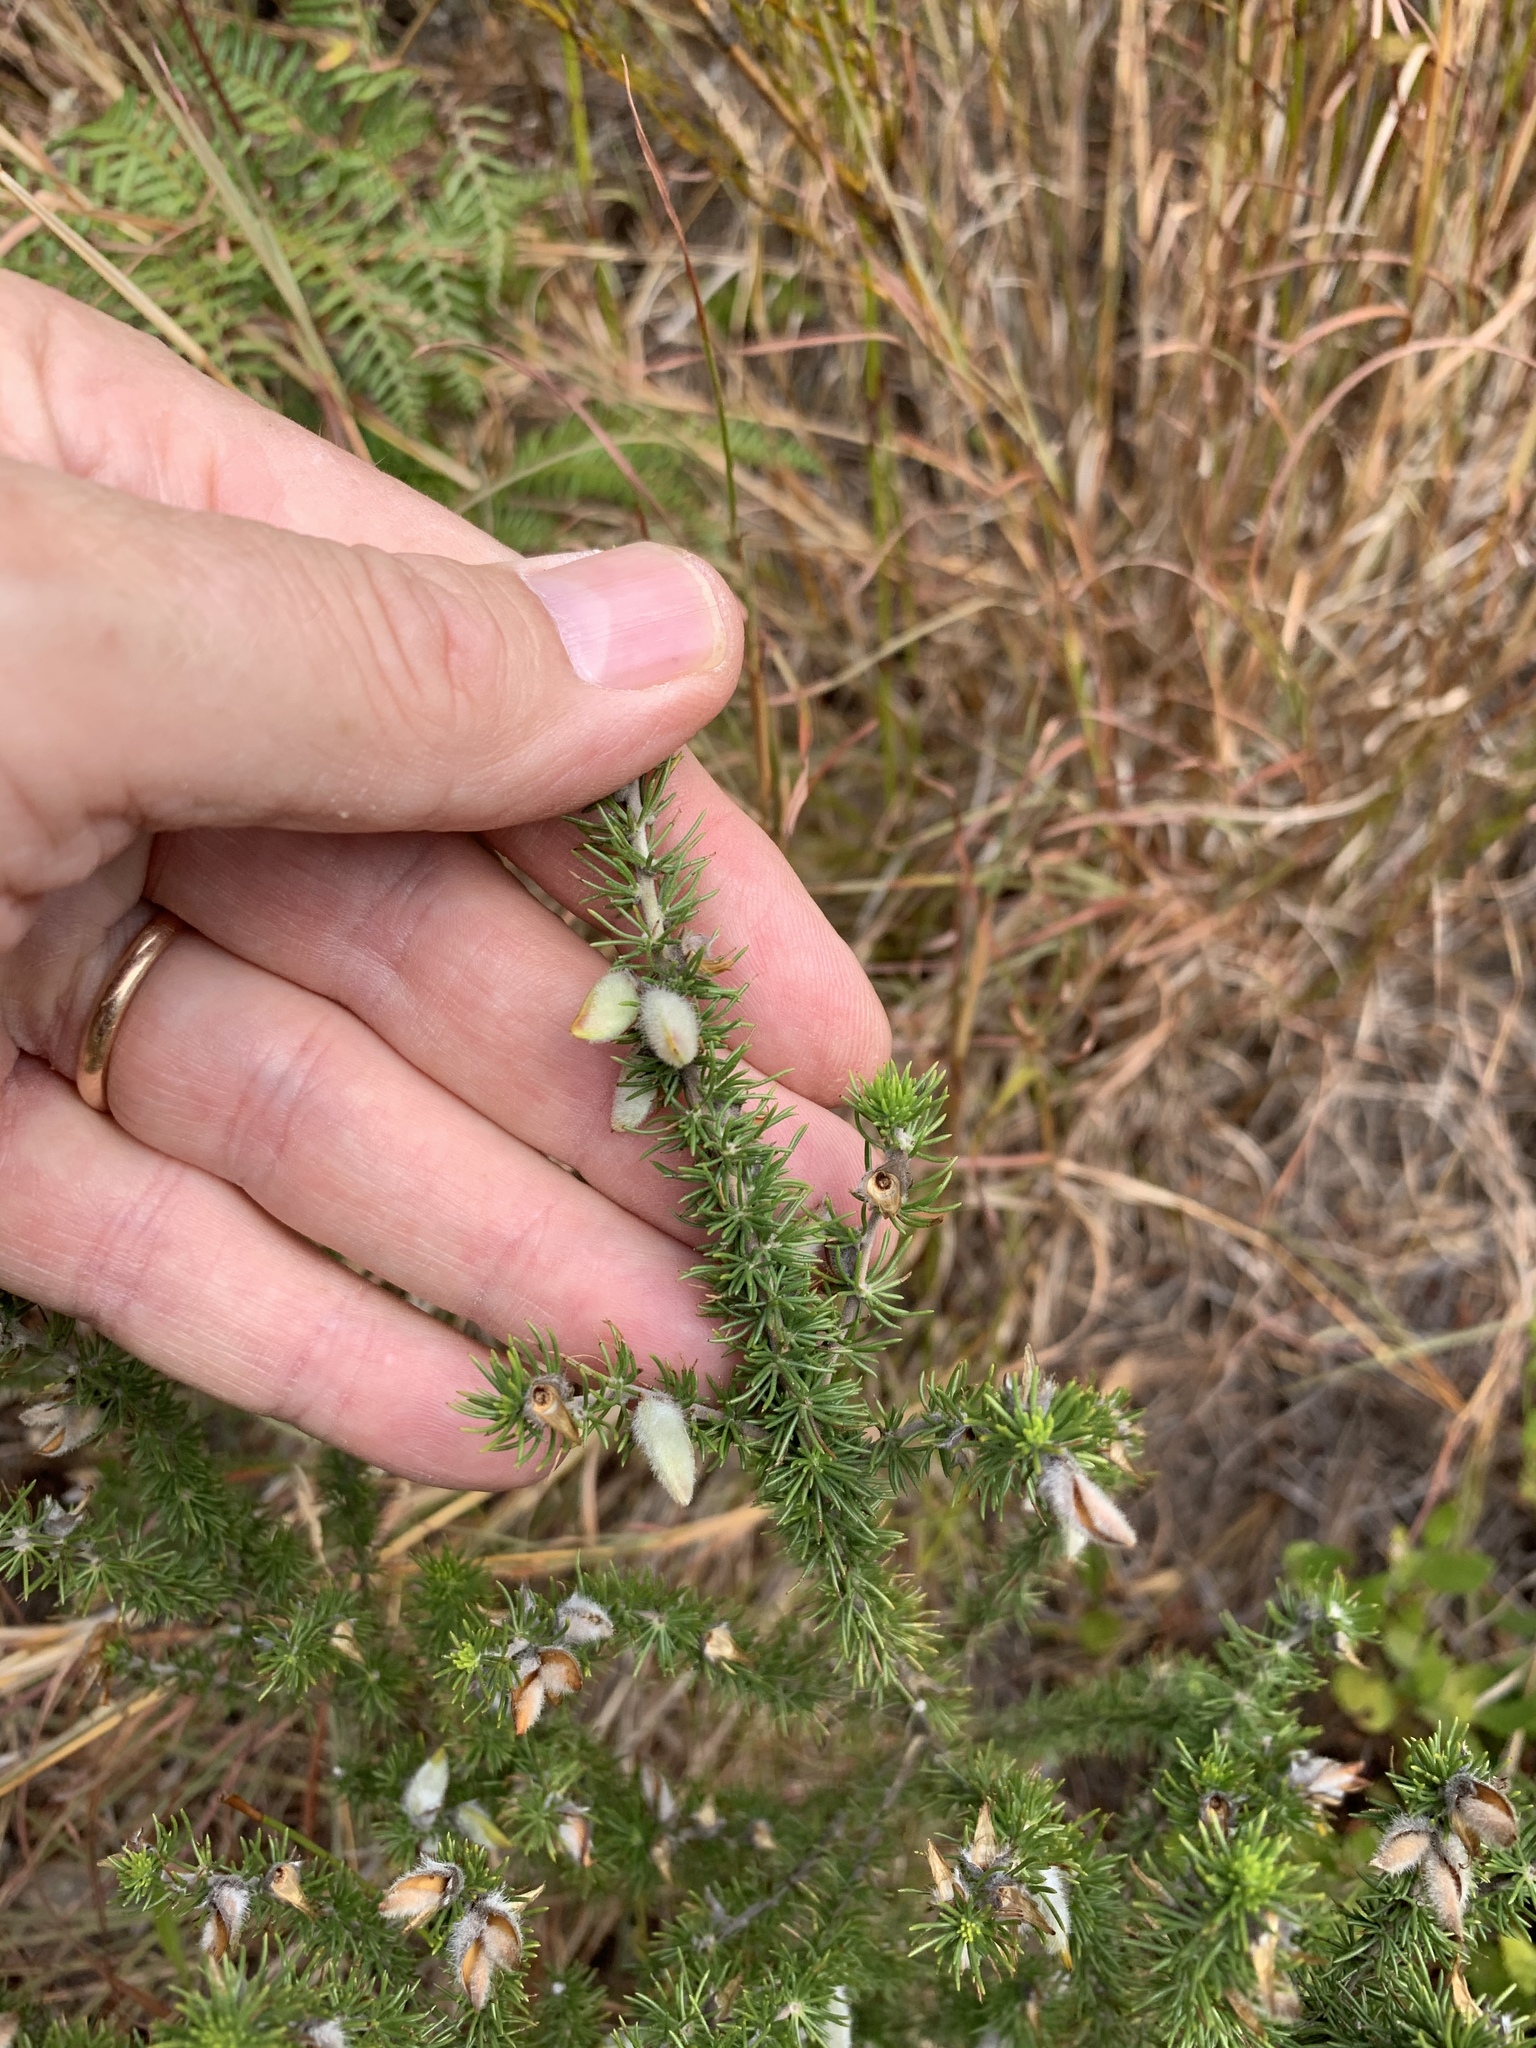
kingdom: Plantae
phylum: Tracheophyta
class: Magnoliopsida
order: Fabales
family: Fabaceae
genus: Aspalathus
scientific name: Aspalathus laricifolia
